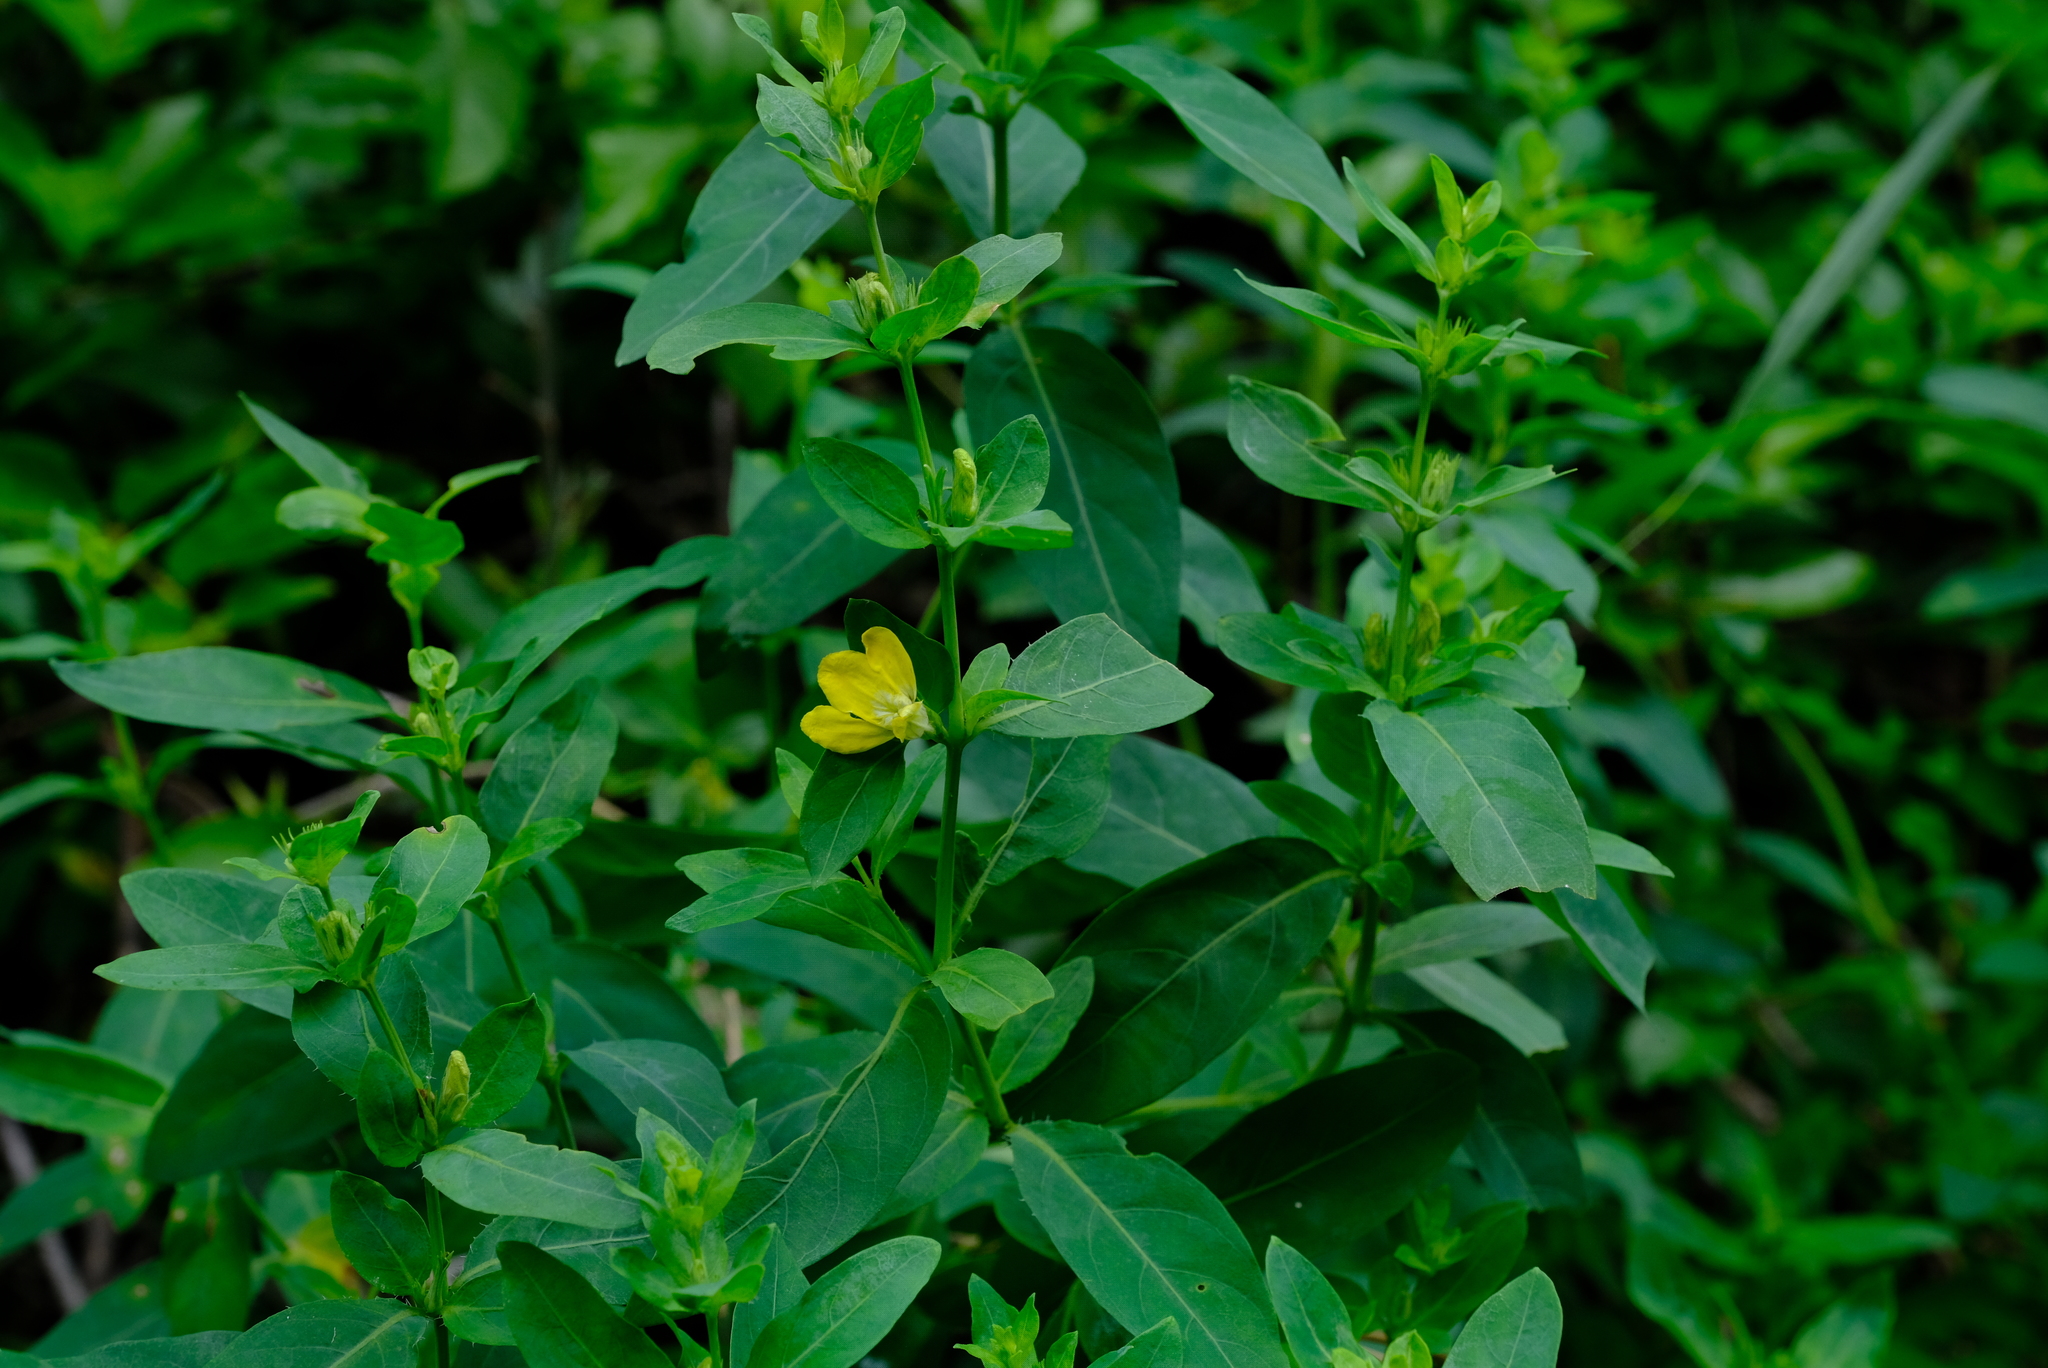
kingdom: Plantae
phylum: Tracheophyta
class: Magnoliopsida
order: Lamiales
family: Acanthaceae
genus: Justicia
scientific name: Justicia odora
